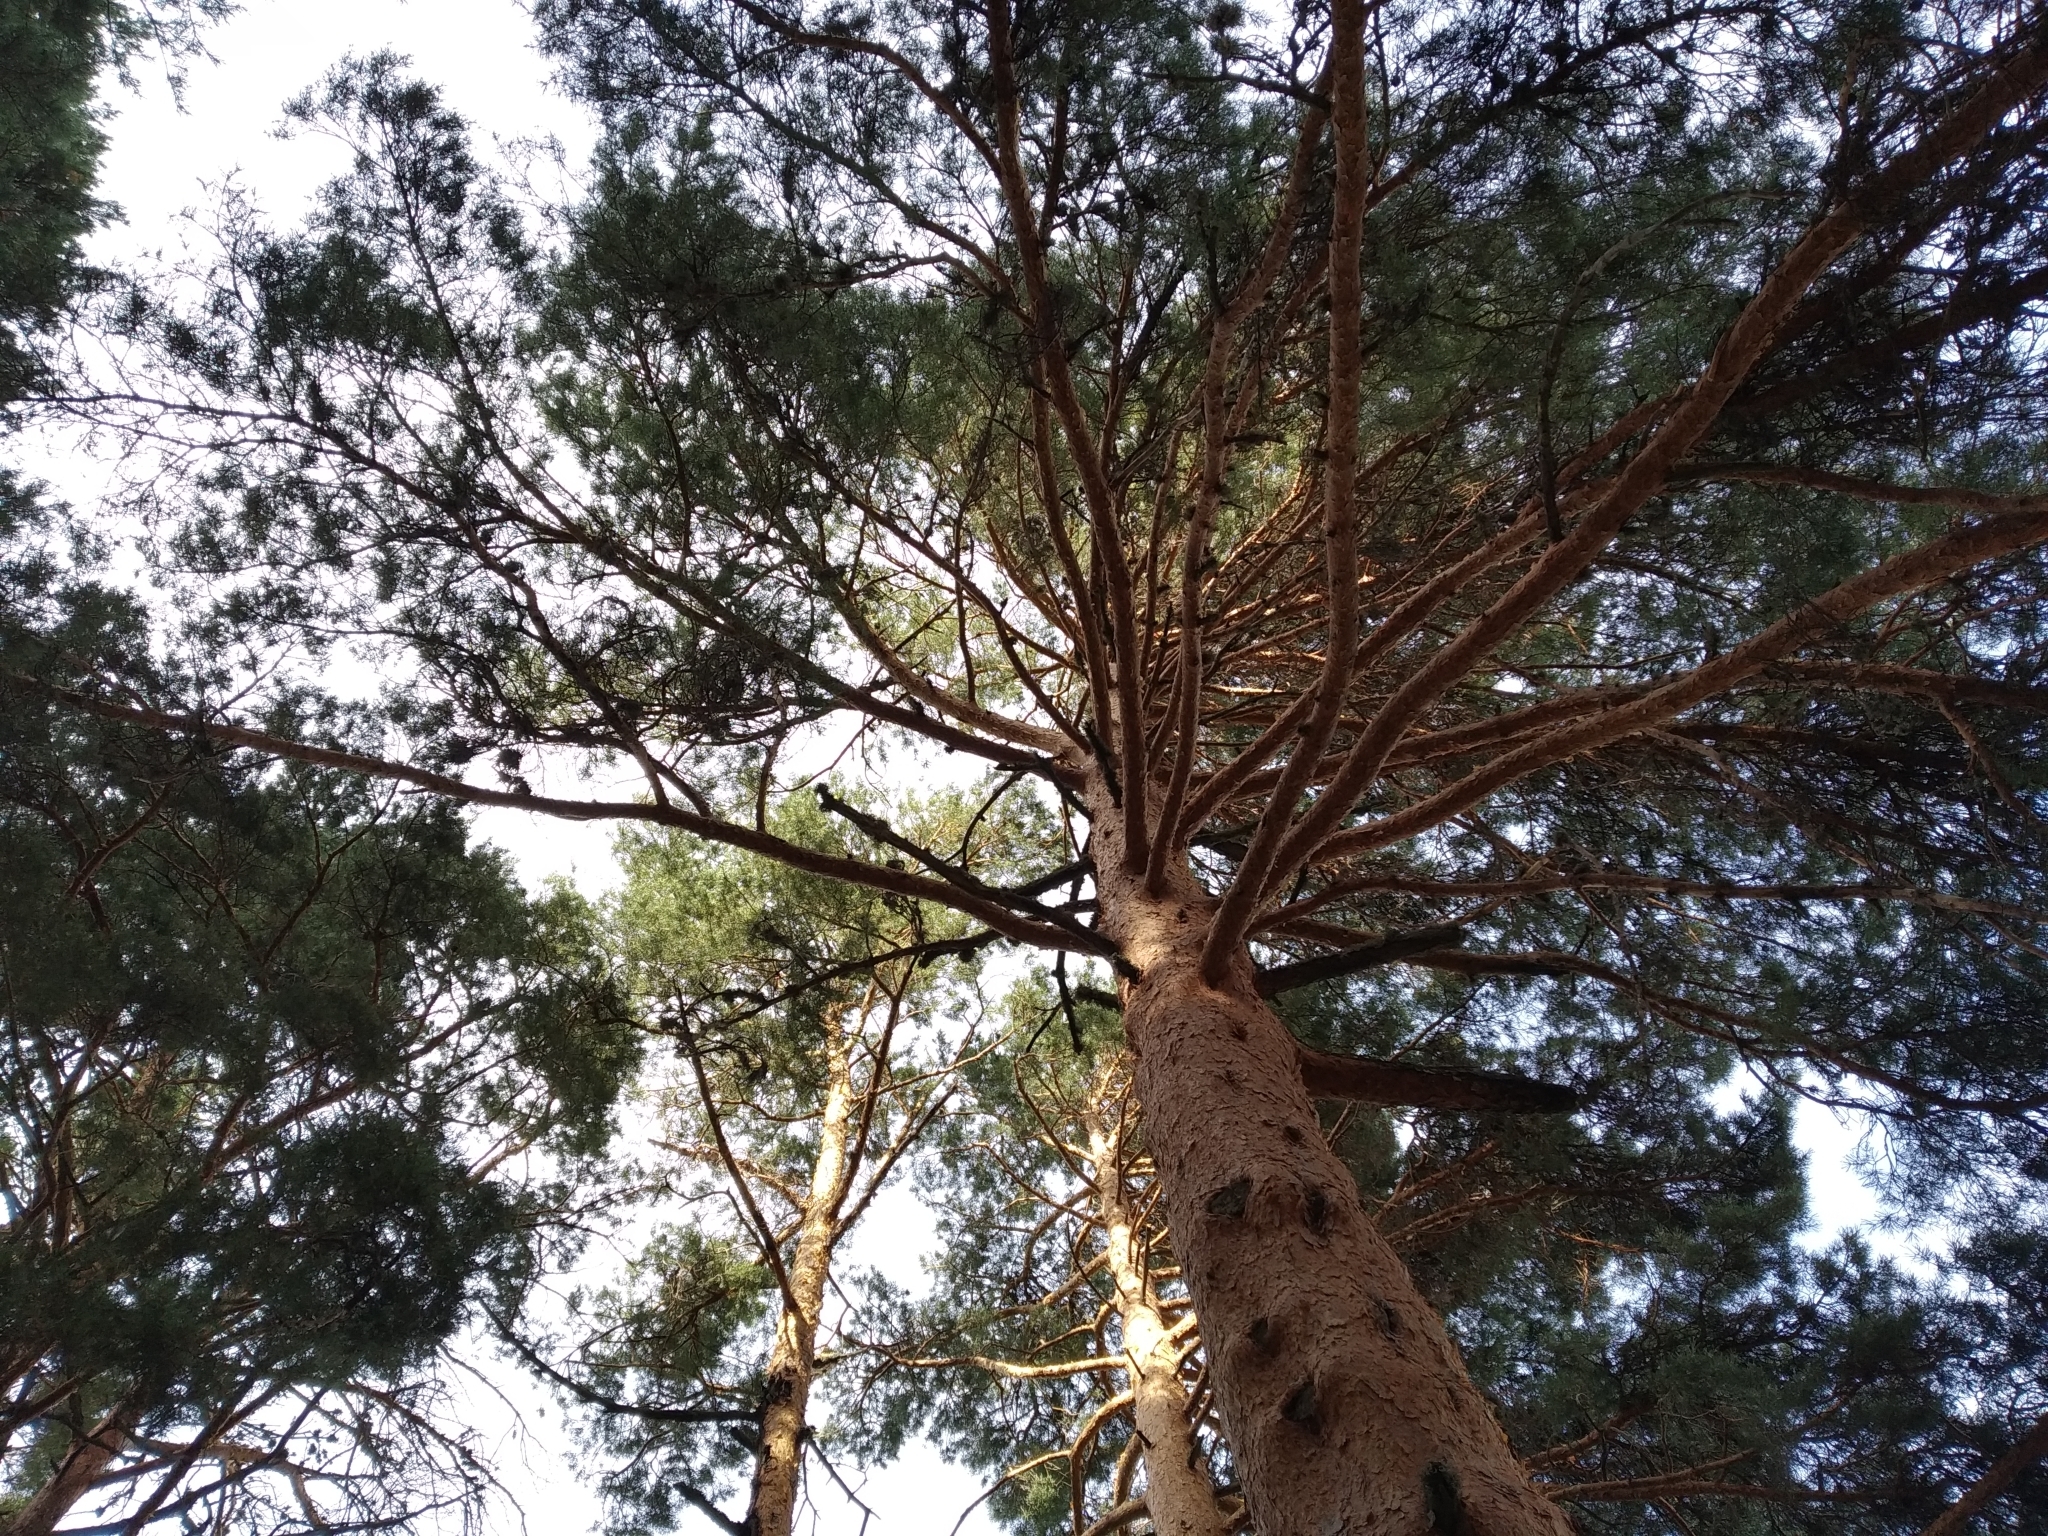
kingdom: Plantae
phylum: Tracheophyta
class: Pinopsida
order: Pinales
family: Pinaceae
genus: Pinus
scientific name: Pinus sylvestris
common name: Scots pine
